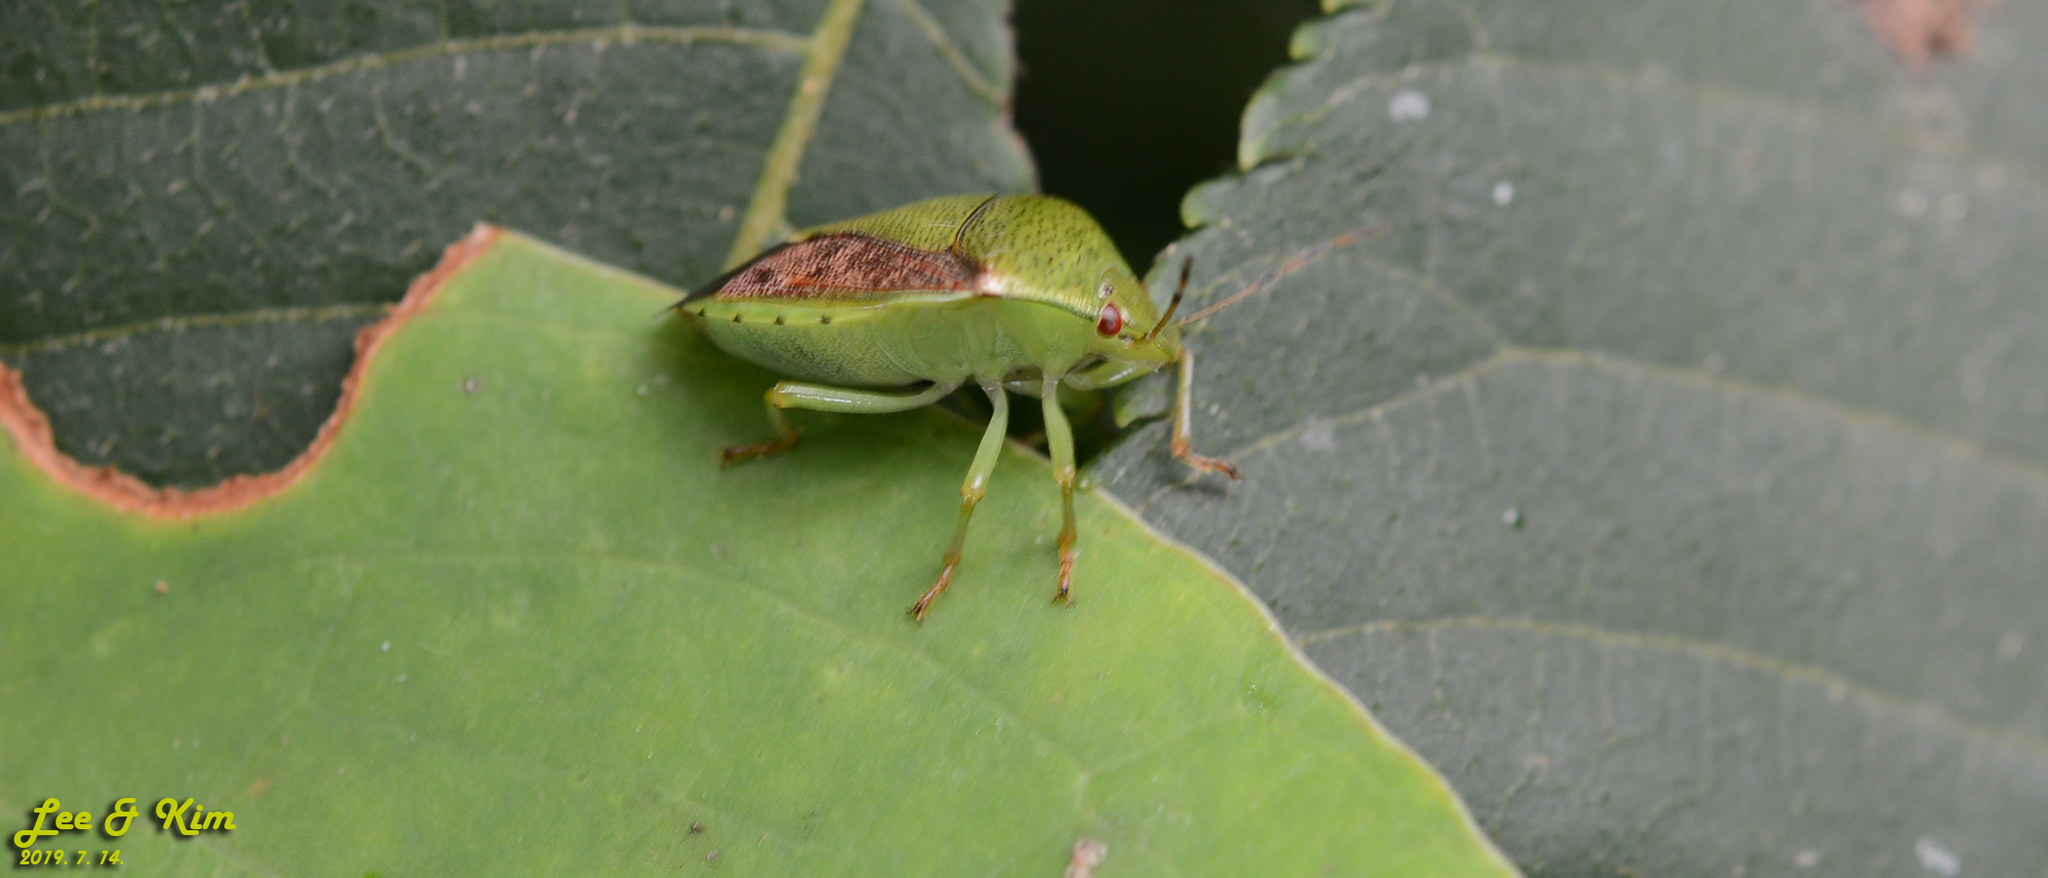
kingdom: Animalia
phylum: Arthropoda
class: Insecta
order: Hemiptera
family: Pentatomidae
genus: Plautia
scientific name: Plautia stali
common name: Stink bug
